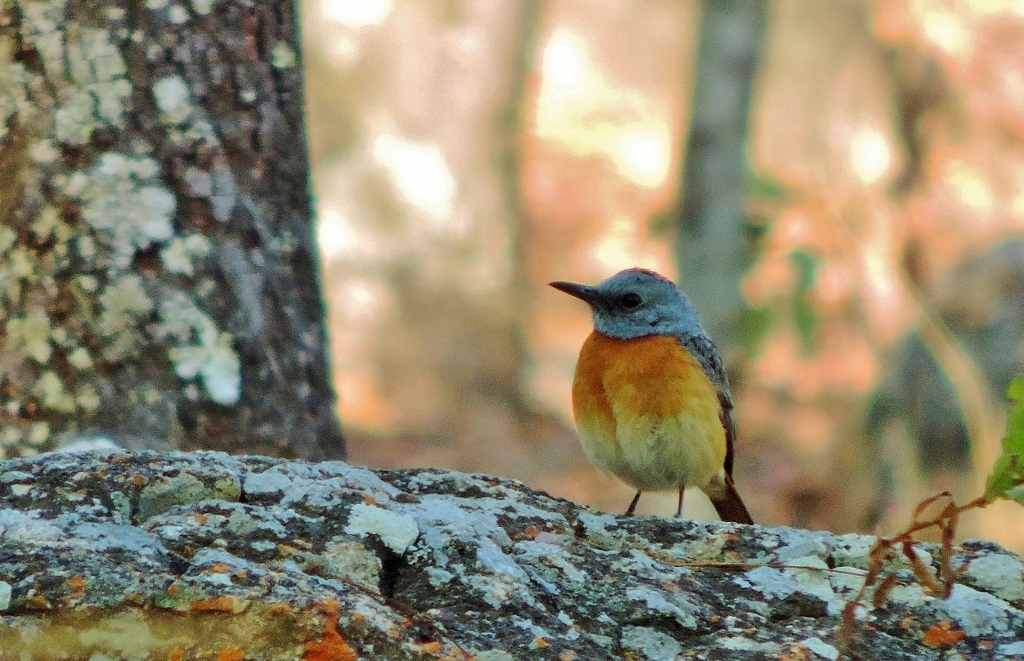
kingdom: Animalia
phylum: Chordata
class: Aves
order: Passeriformes
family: Muscicapidae
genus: Monticola
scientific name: Monticola angolensis
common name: Miombo rock thrush
